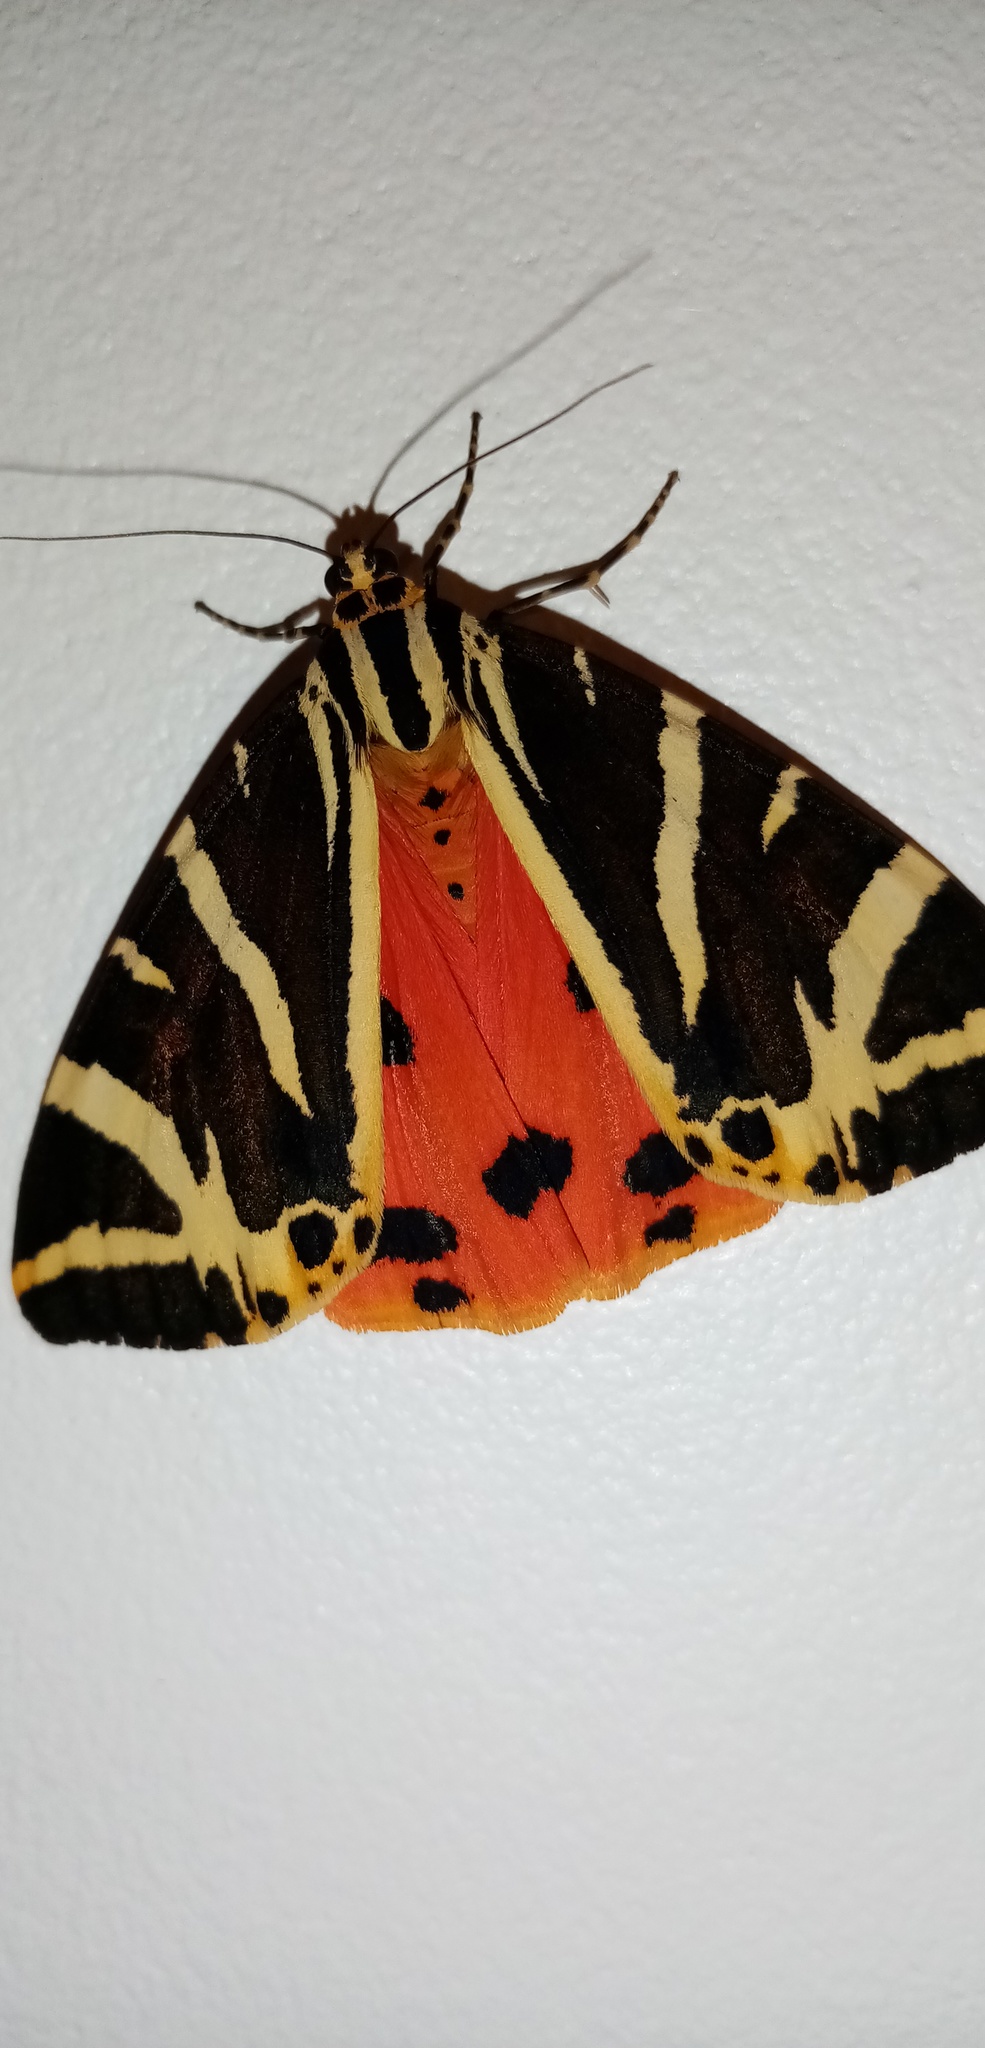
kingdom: Animalia
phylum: Arthropoda
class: Insecta
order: Lepidoptera
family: Erebidae
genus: Euplagia
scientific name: Euplagia quadripunctaria
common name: Jersey tiger
